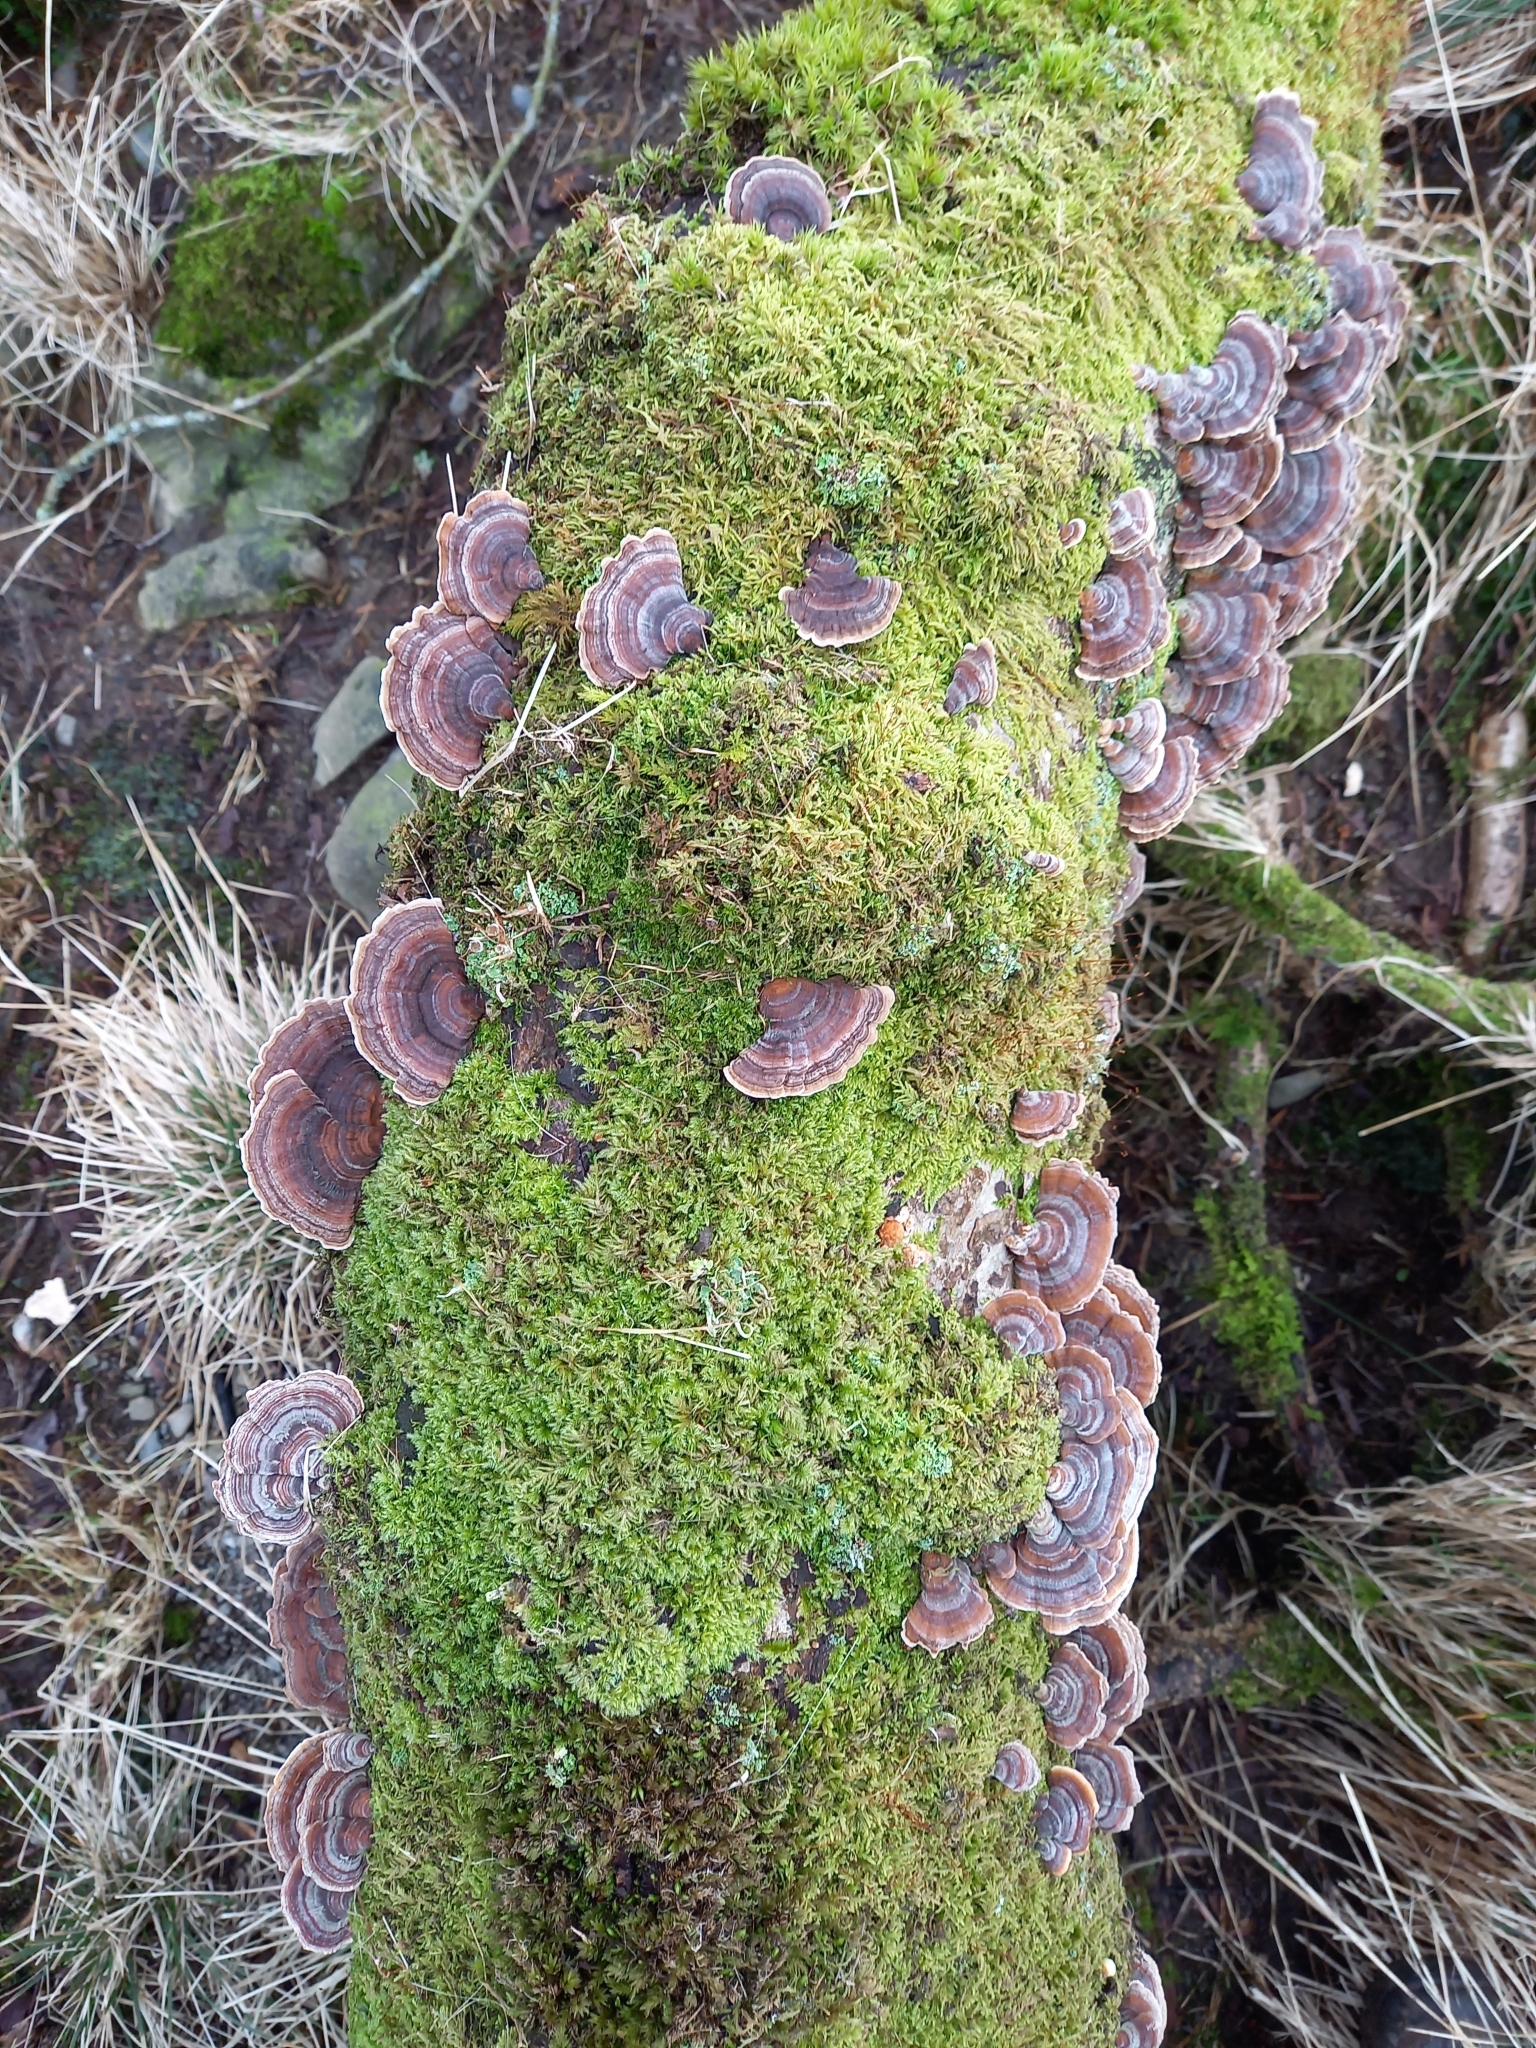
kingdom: Fungi
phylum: Basidiomycota
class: Agaricomycetes
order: Polyporales
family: Polyporaceae
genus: Trametes
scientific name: Trametes versicolor
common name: Turkeytail
